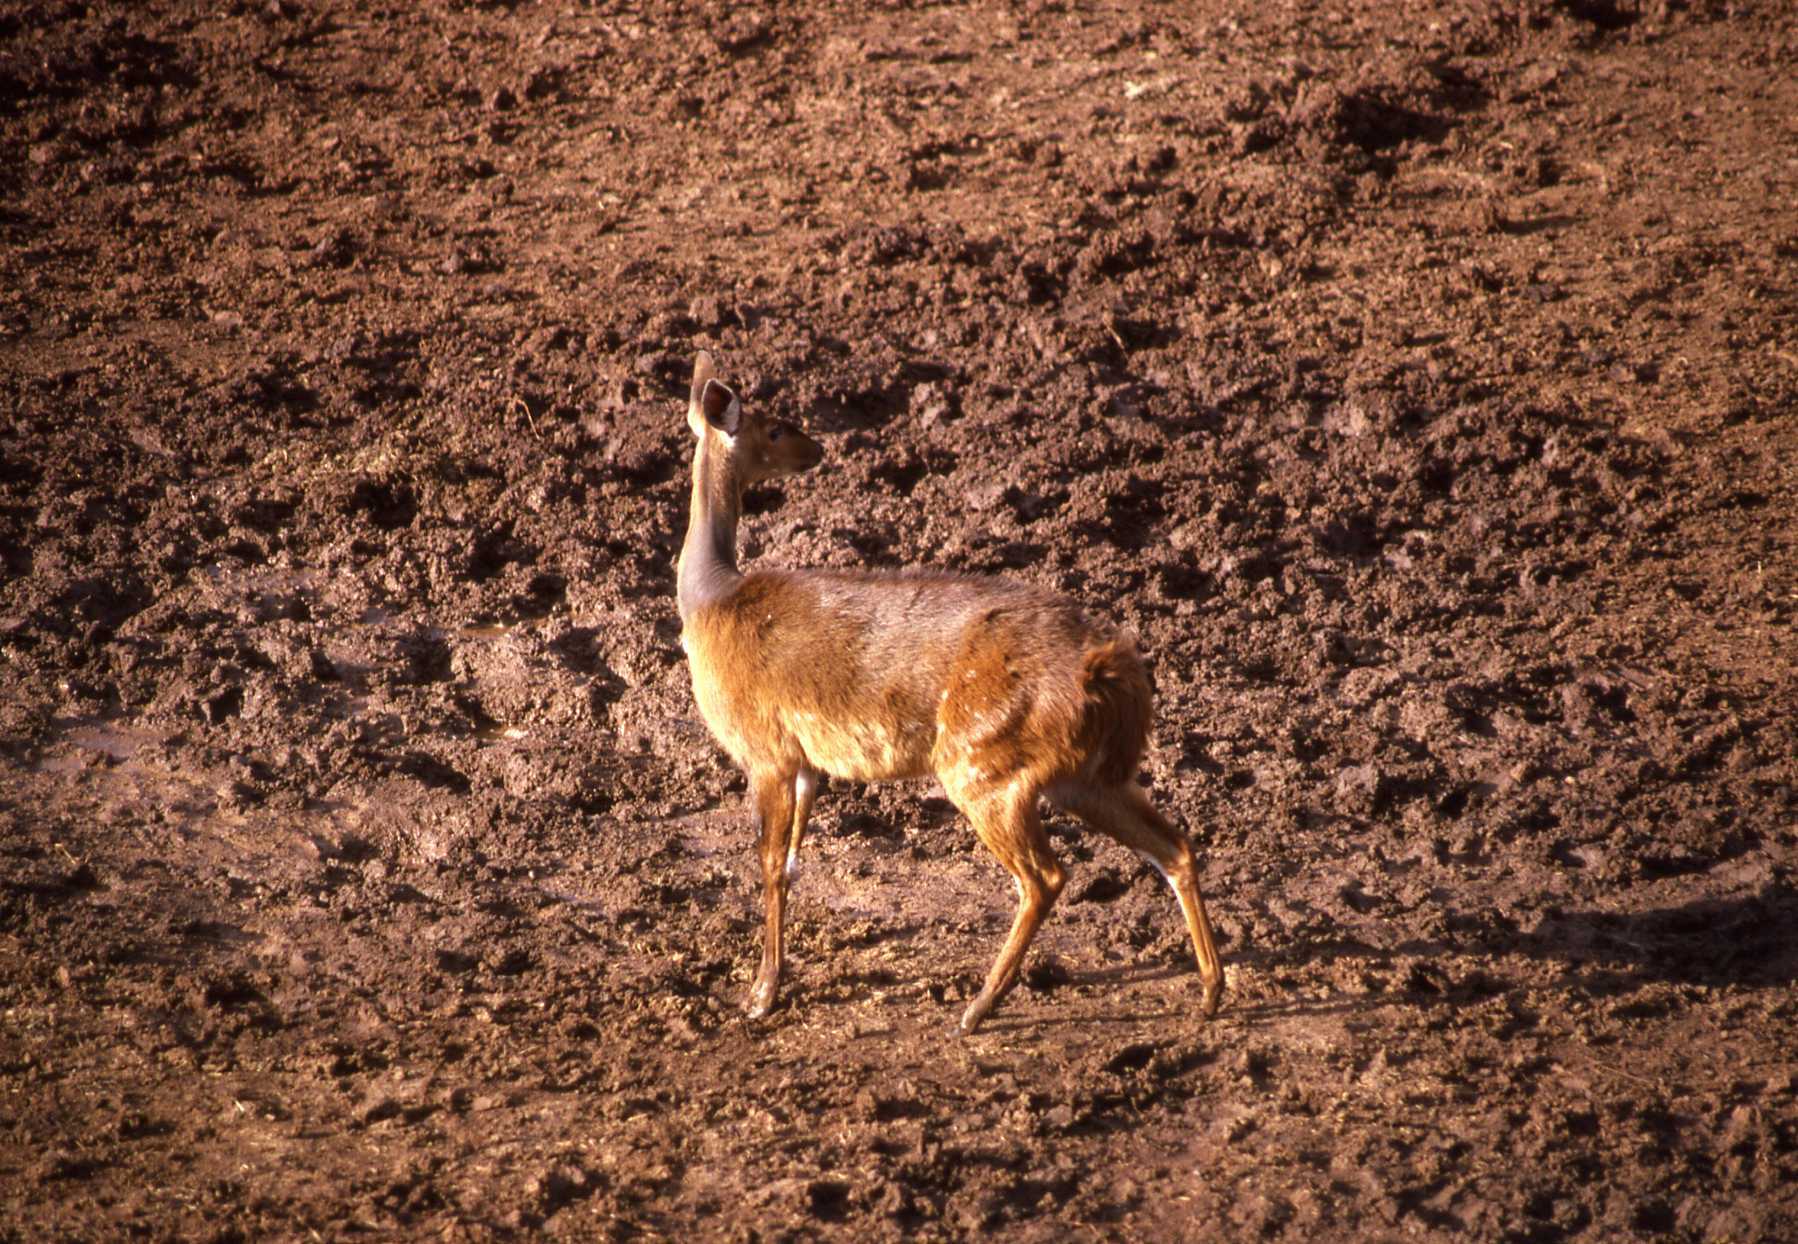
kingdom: Animalia
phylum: Chordata
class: Mammalia
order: Artiodactyla
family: Bovidae
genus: Tragelaphus
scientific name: Tragelaphus scriptus
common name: Bushbuck
